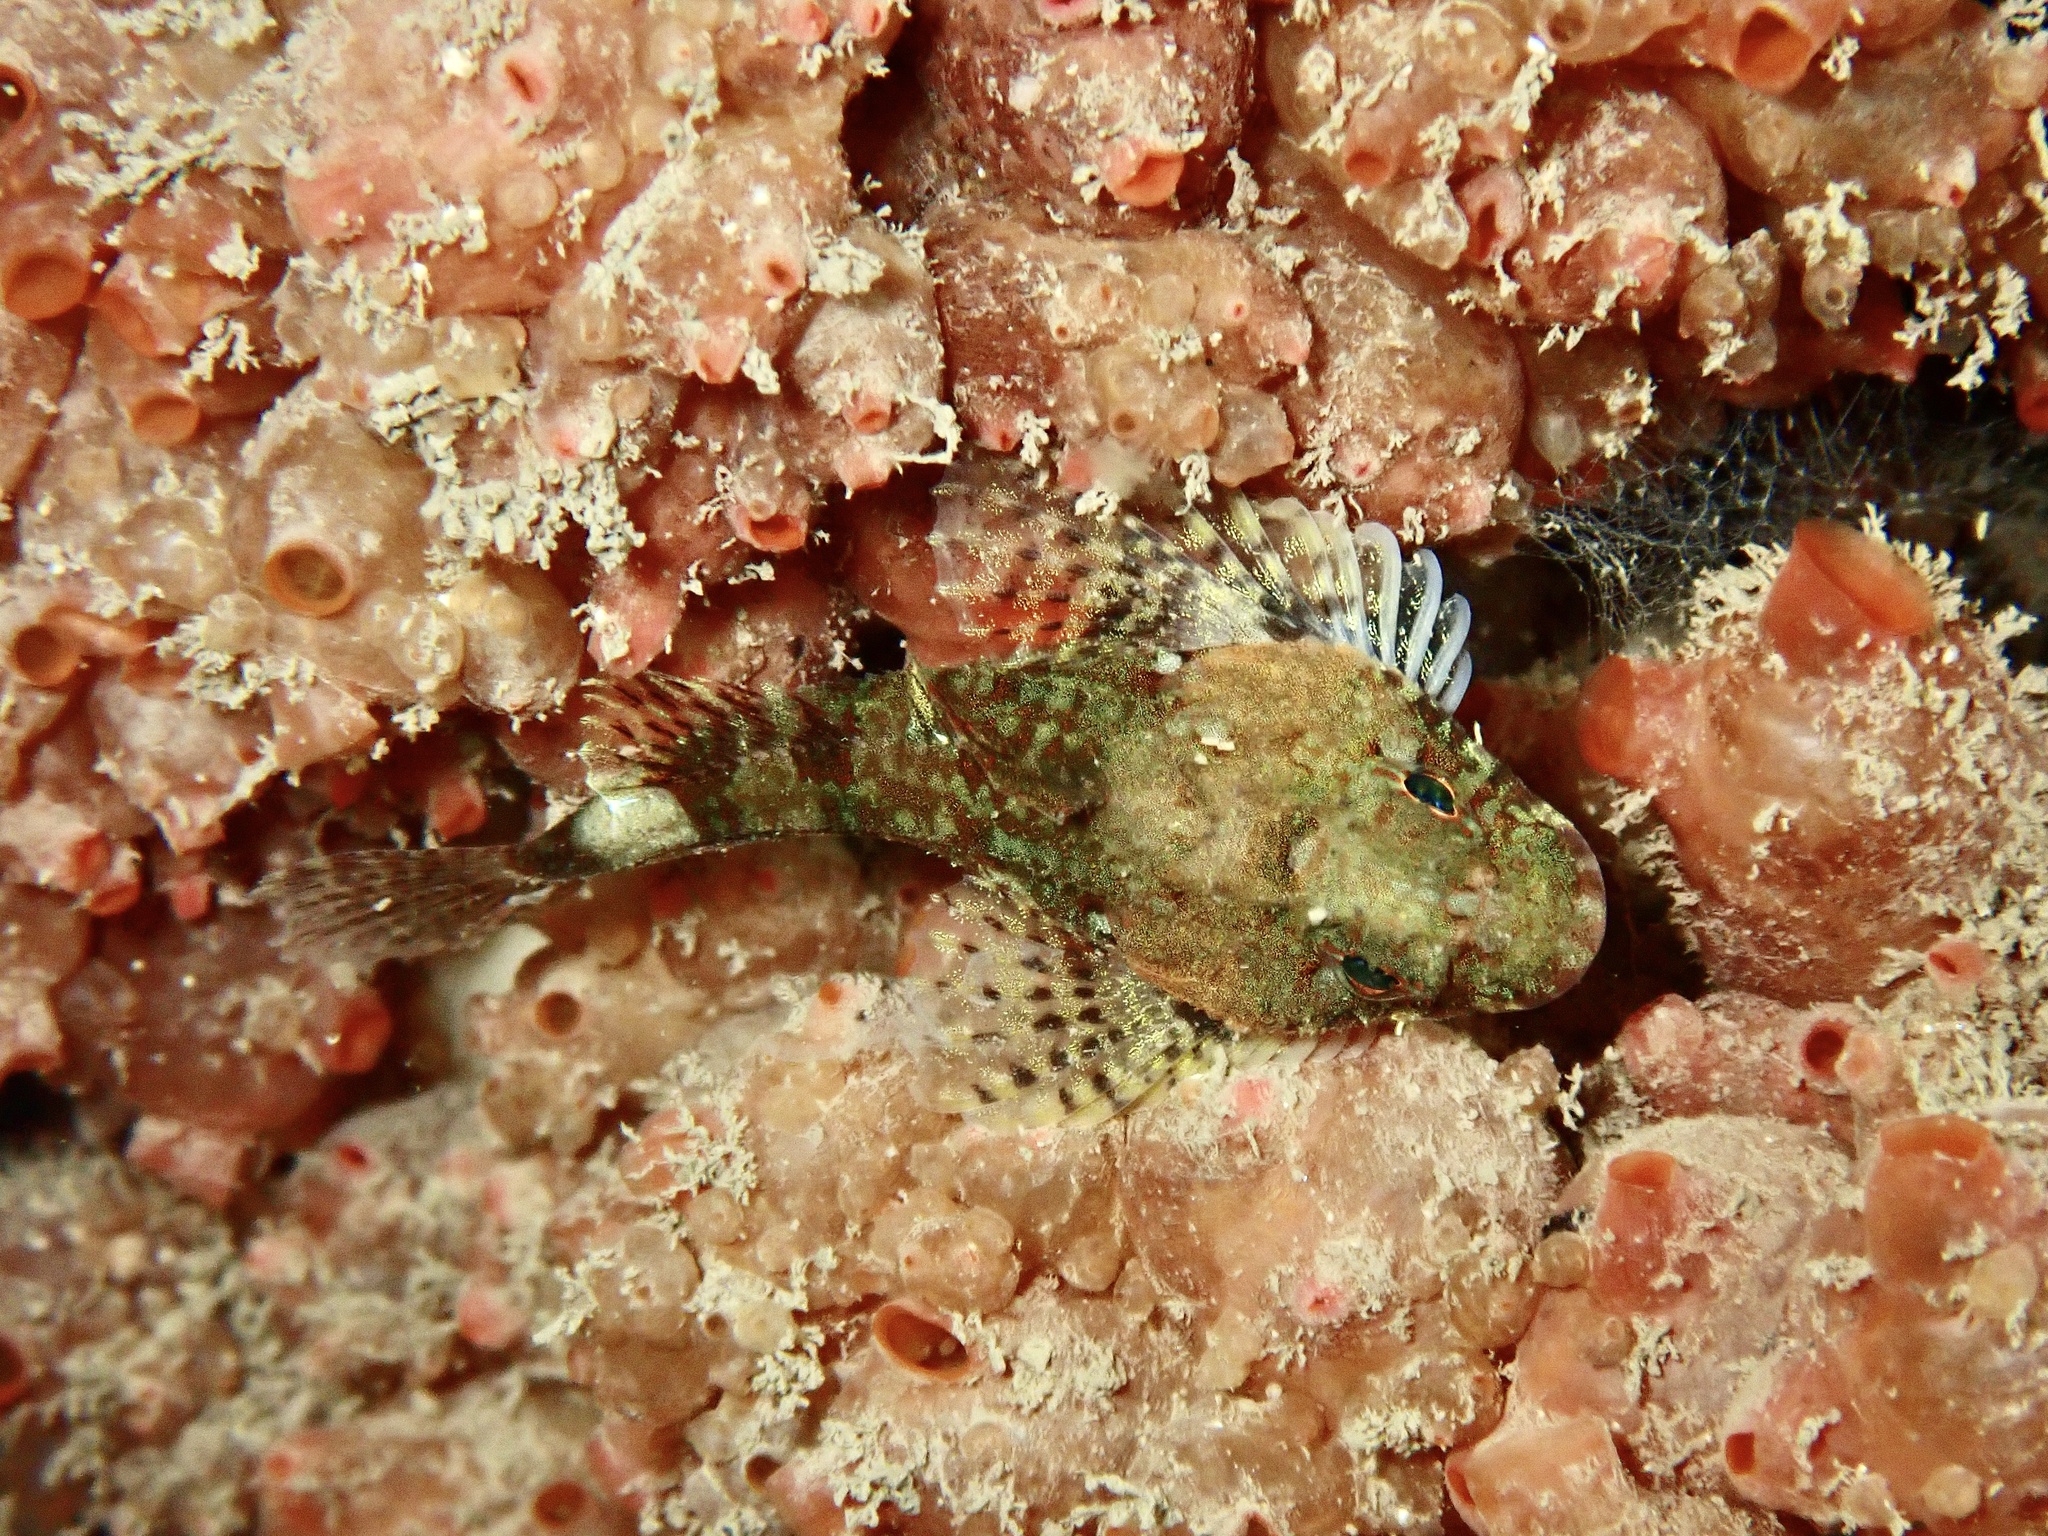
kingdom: Animalia
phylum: Chordata
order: Scorpaeniformes
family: Cottidae
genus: Micrenophrys
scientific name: Micrenophrys lilljeborgii
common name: Norway bullhead
